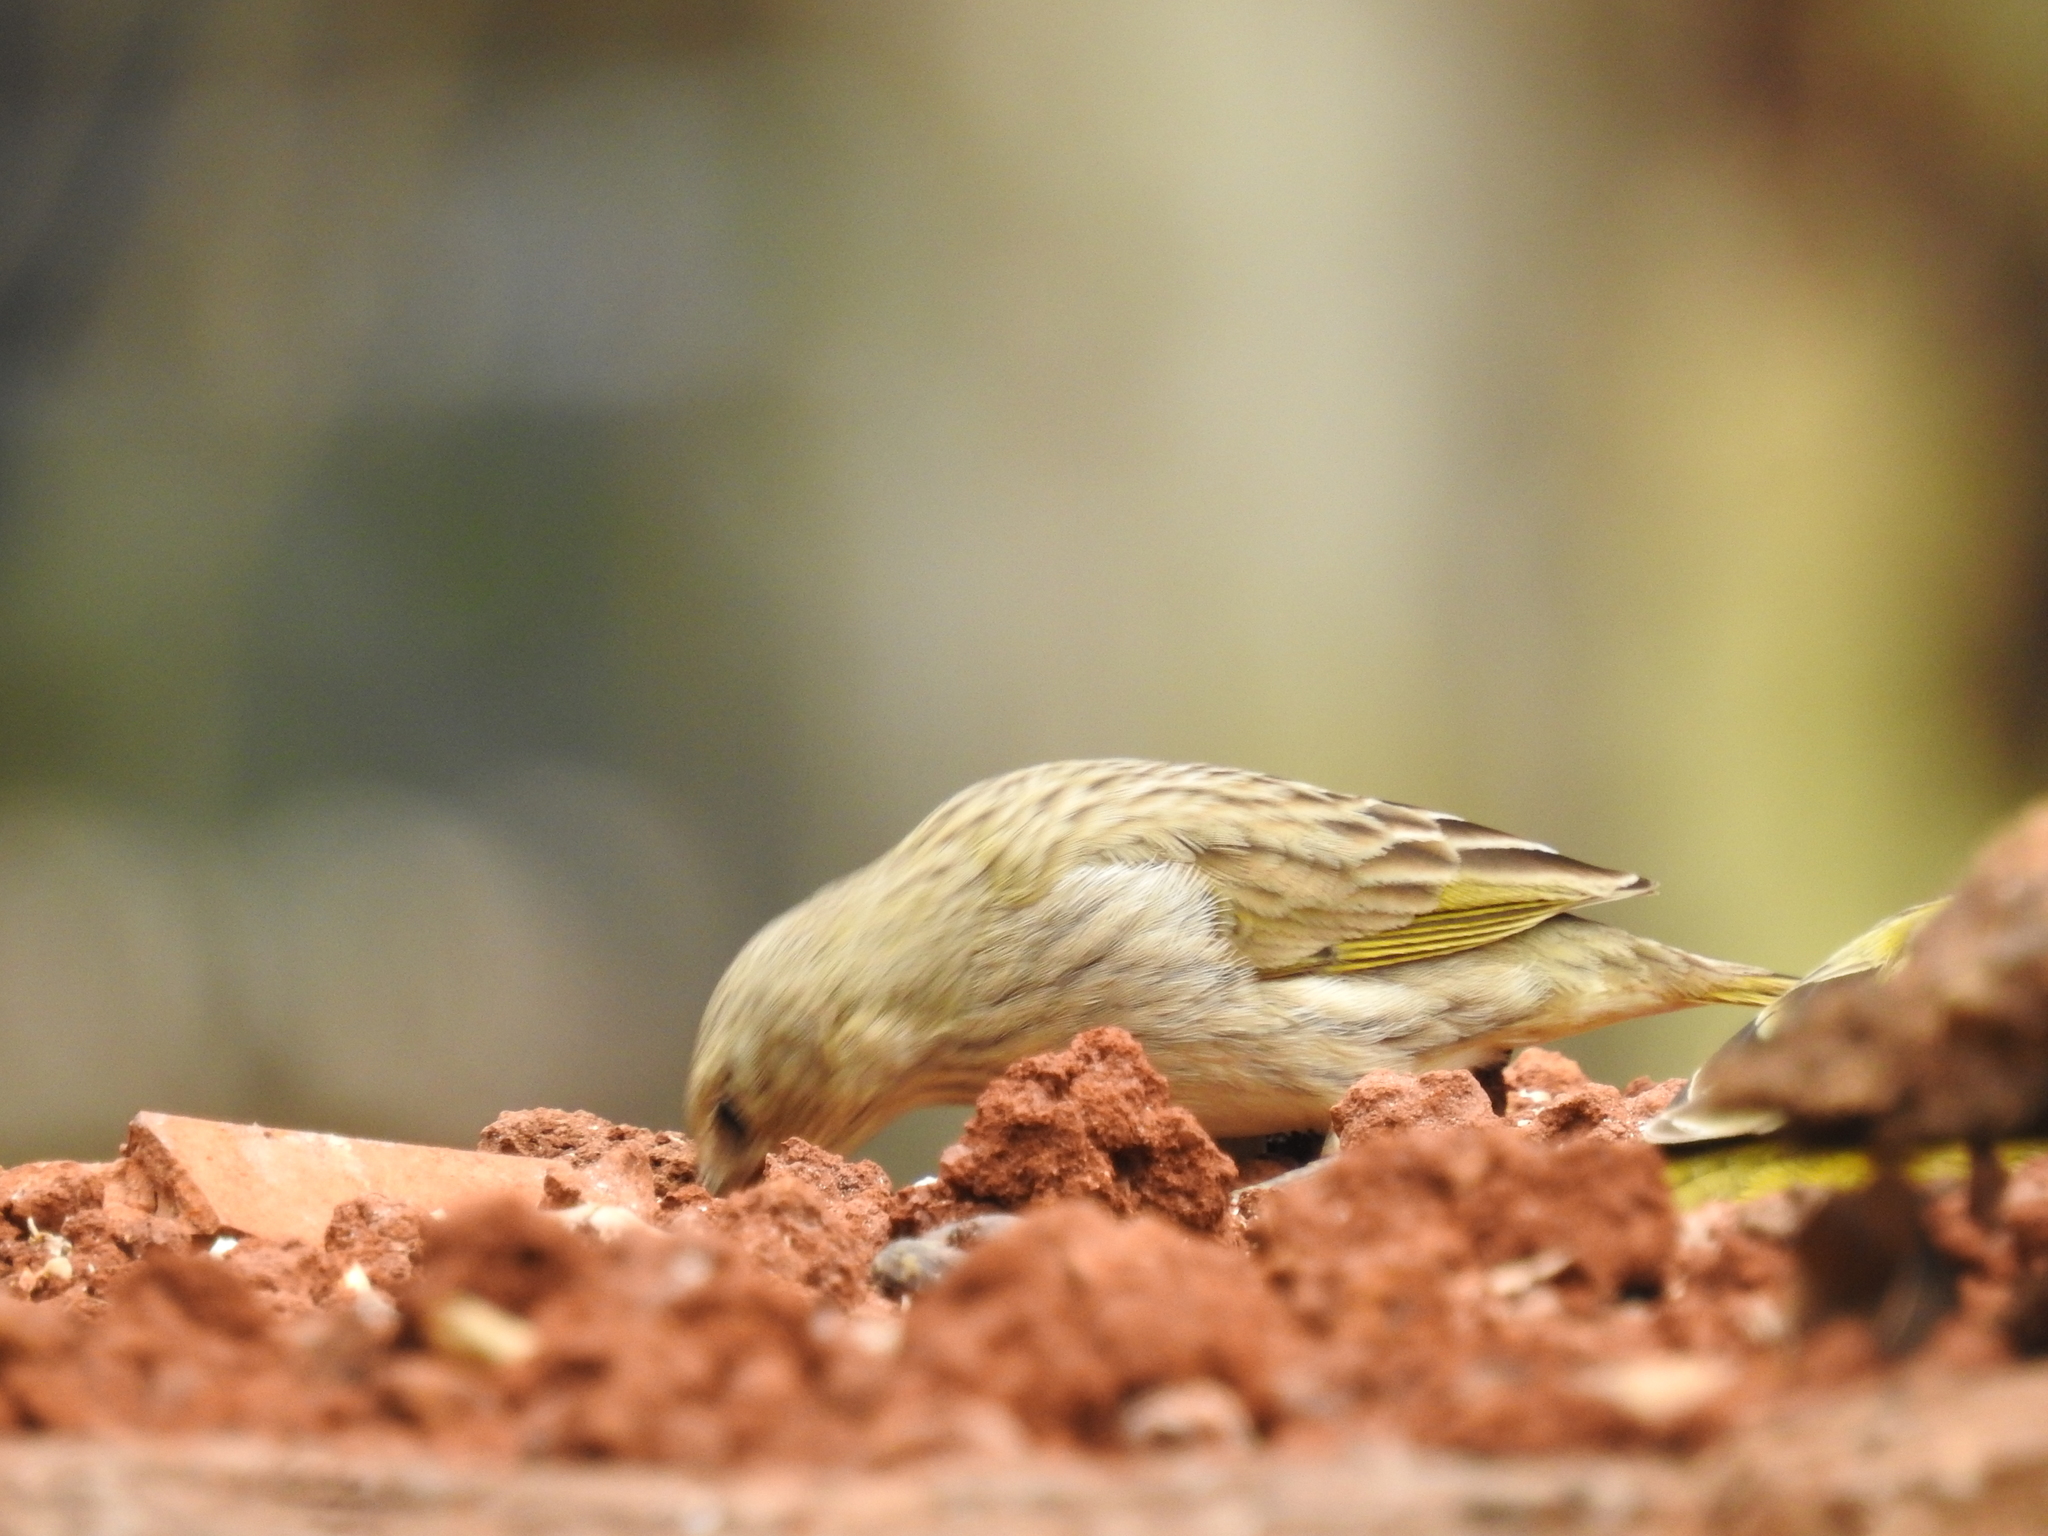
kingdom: Animalia
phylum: Chordata
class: Aves
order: Passeriformes
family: Thraupidae
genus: Sicalis
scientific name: Sicalis flaveola
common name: Saffron finch
